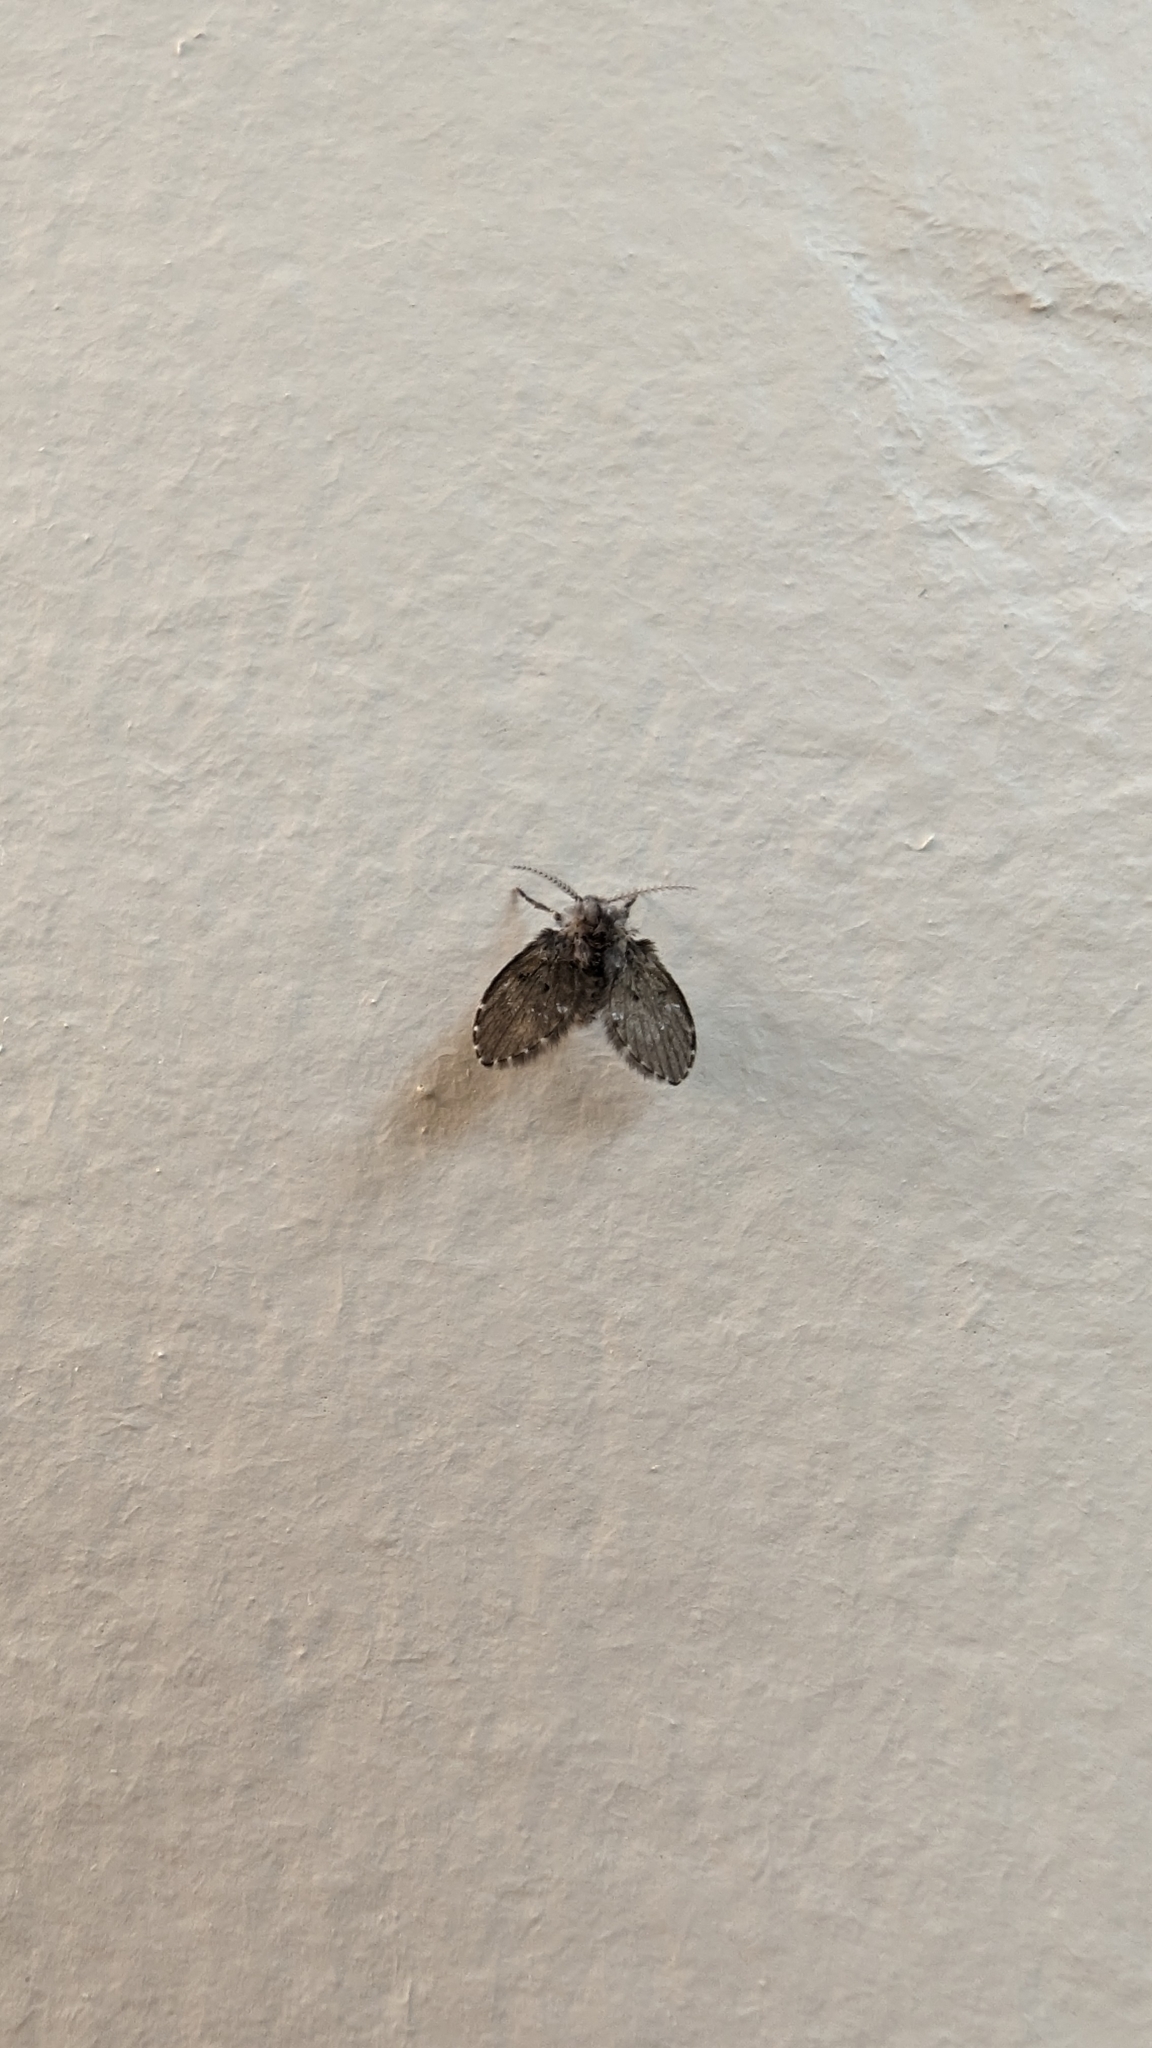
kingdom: Animalia
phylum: Arthropoda
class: Insecta
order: Diptera
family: Psychodidae
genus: Clogmia
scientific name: Clogmia albipunctatus
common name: White-spotted moth fly
